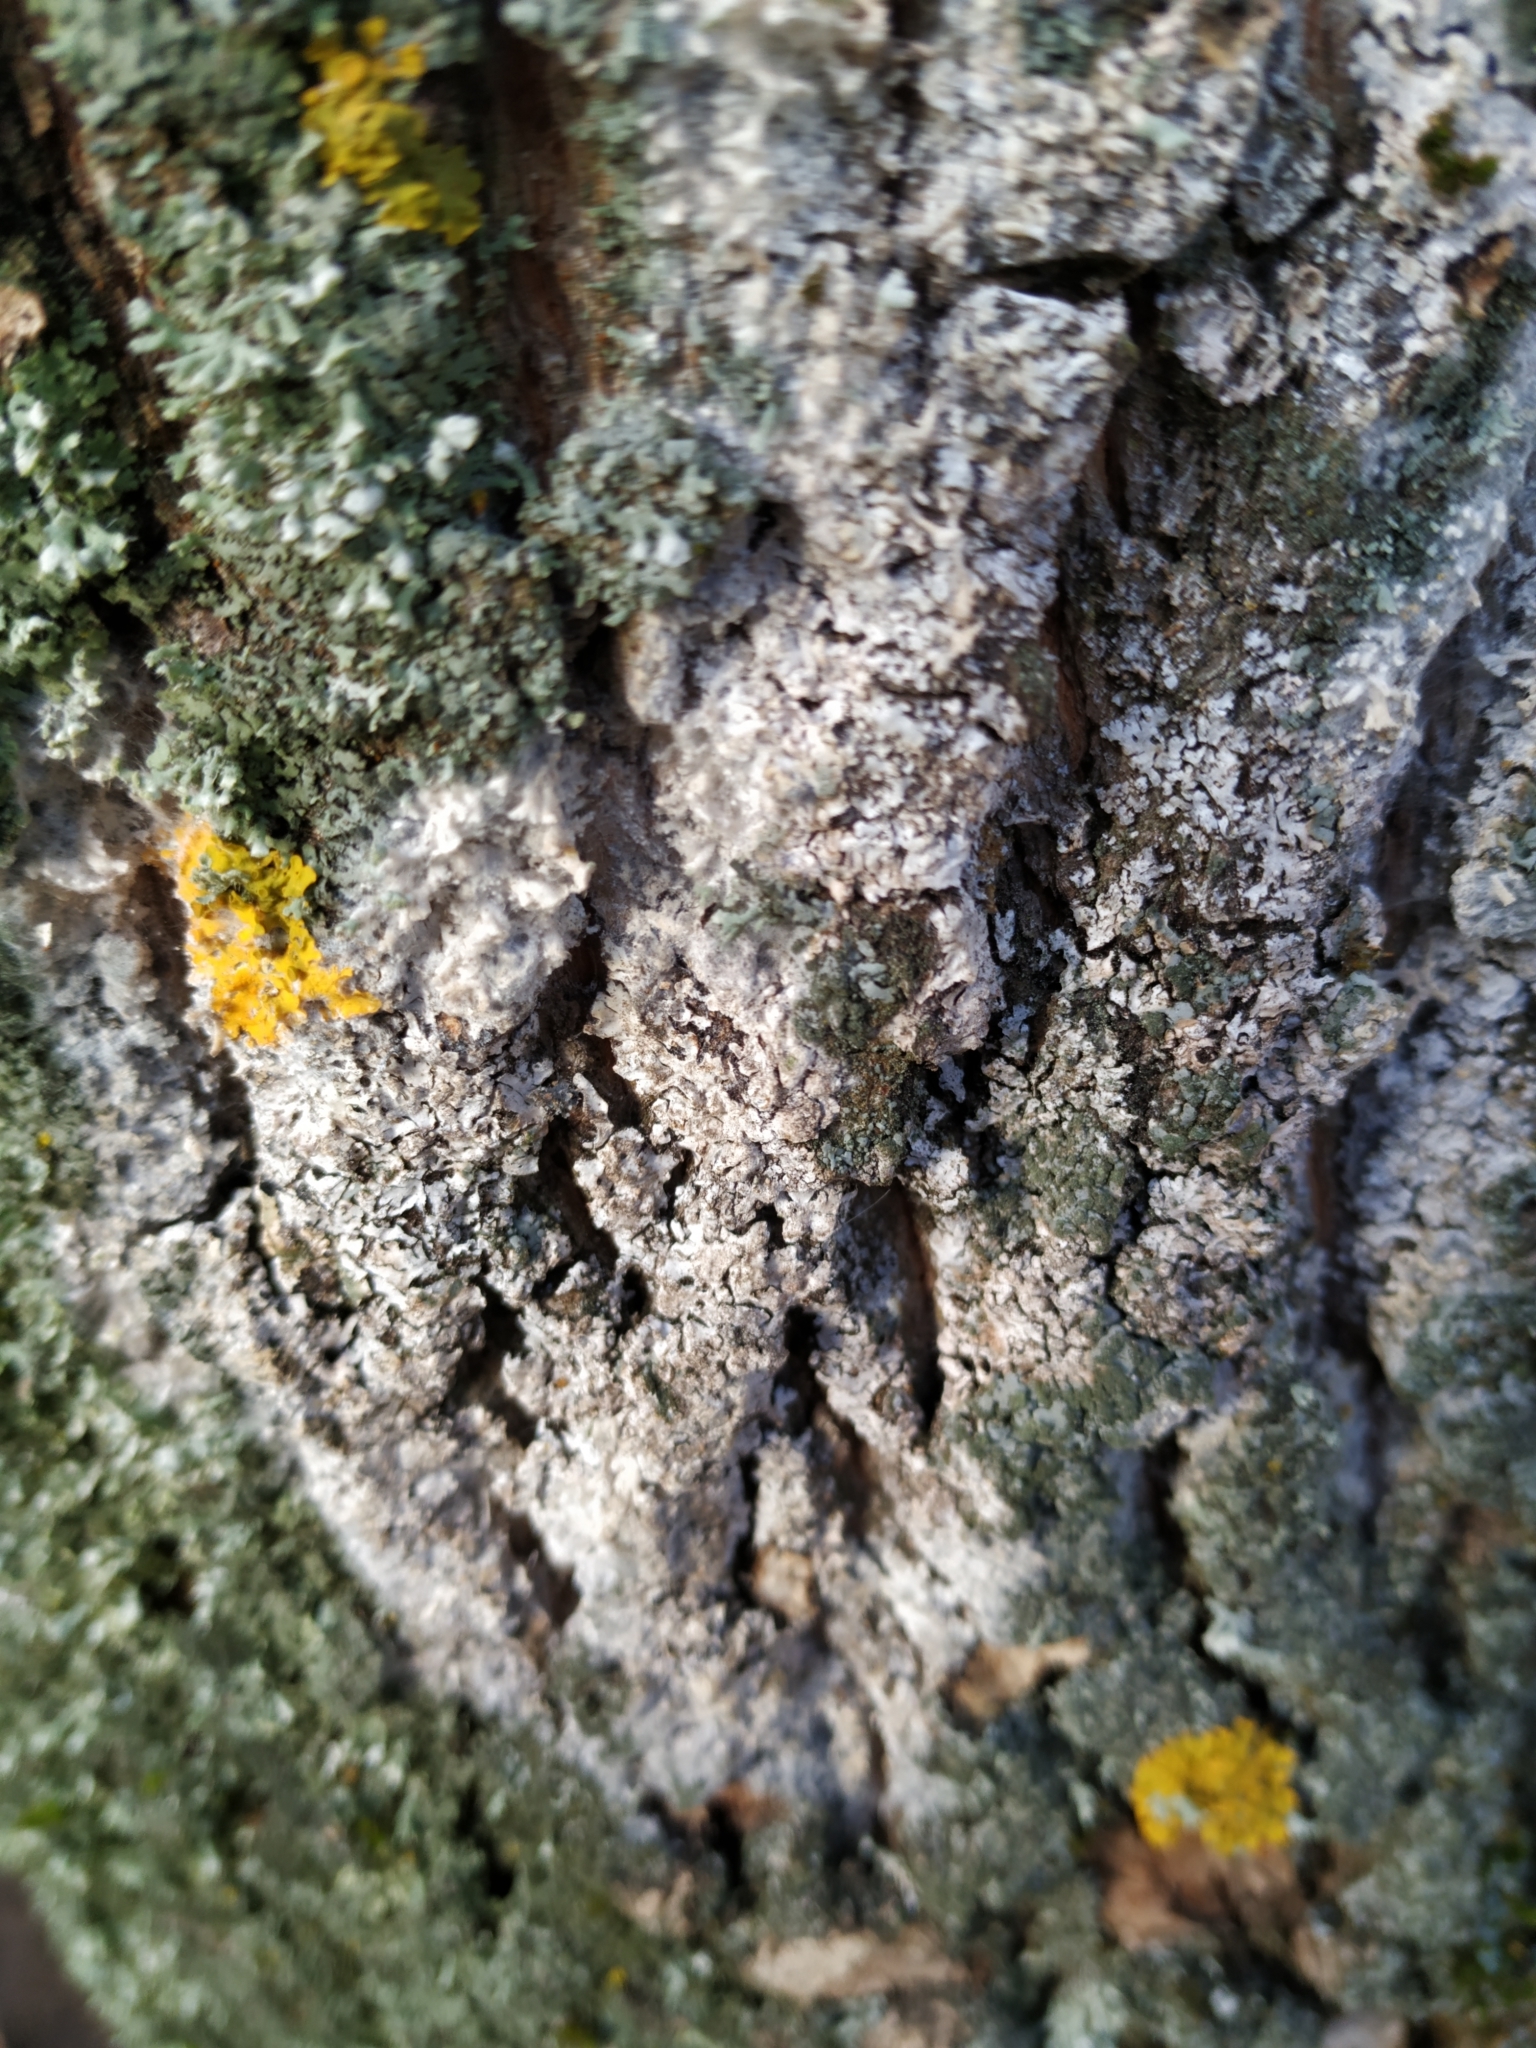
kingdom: Fungi
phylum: Ascomycota
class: Lecanoromycetes
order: Caliciales
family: Physciaceae
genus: Physcia
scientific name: Physcia adscendens
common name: Hooded rosette lichen
